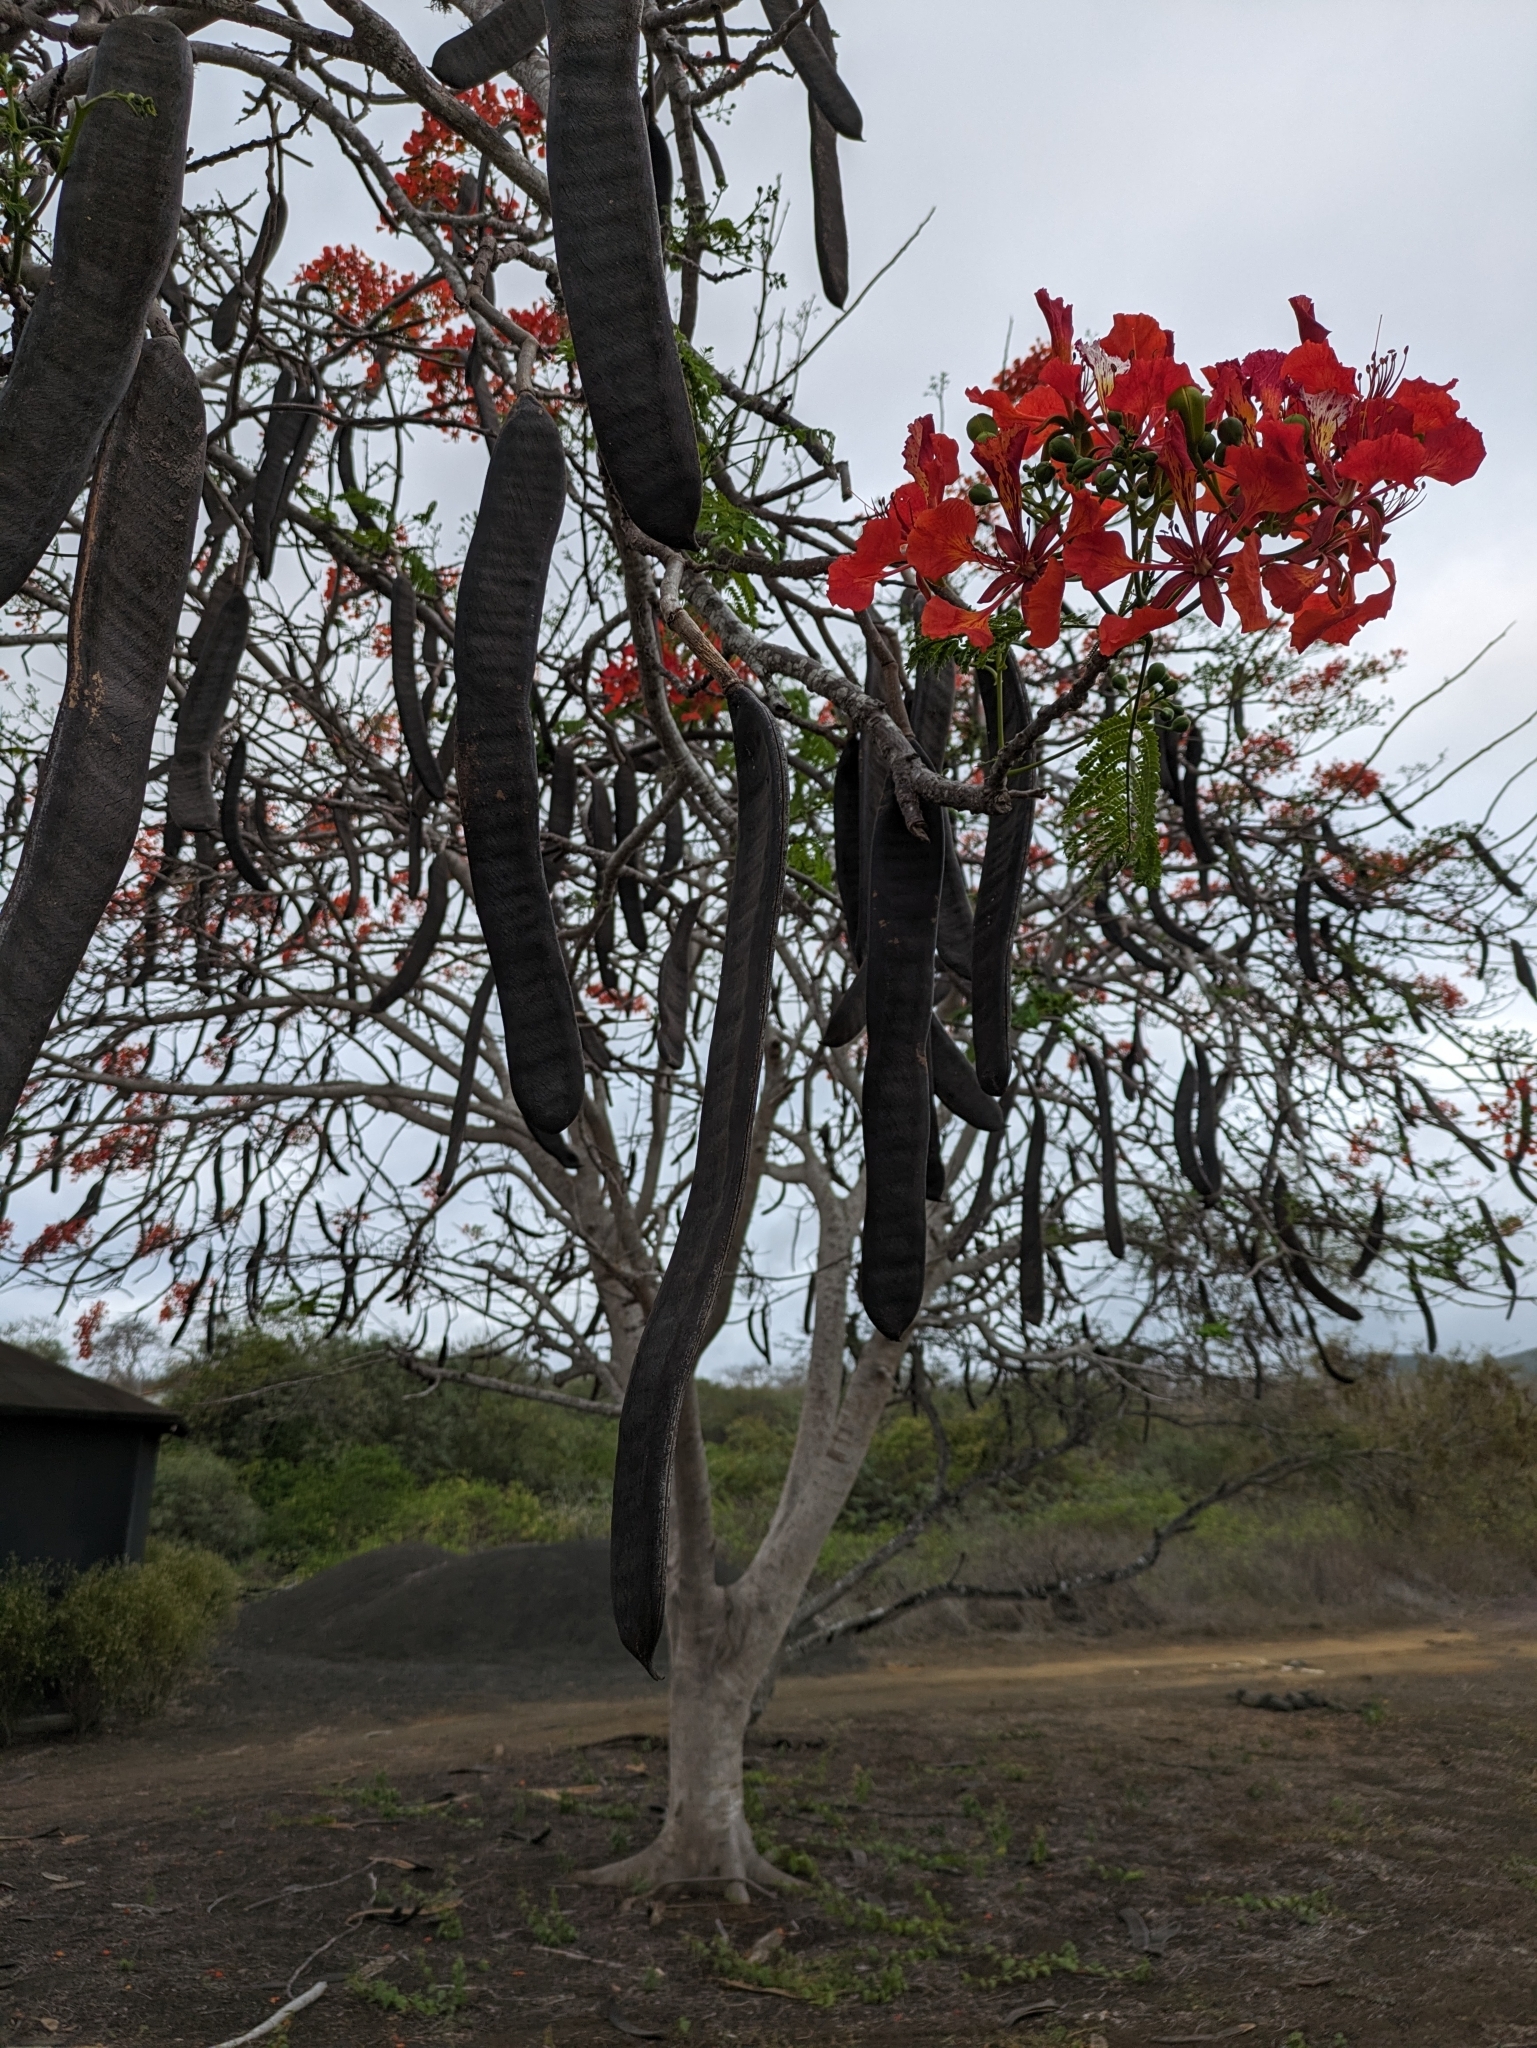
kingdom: Plantae
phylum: Tracheophyta
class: Magnoliopsida
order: Fabales
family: Fabaceae
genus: Delonix
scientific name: Delonix regia
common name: Royal poinciana
